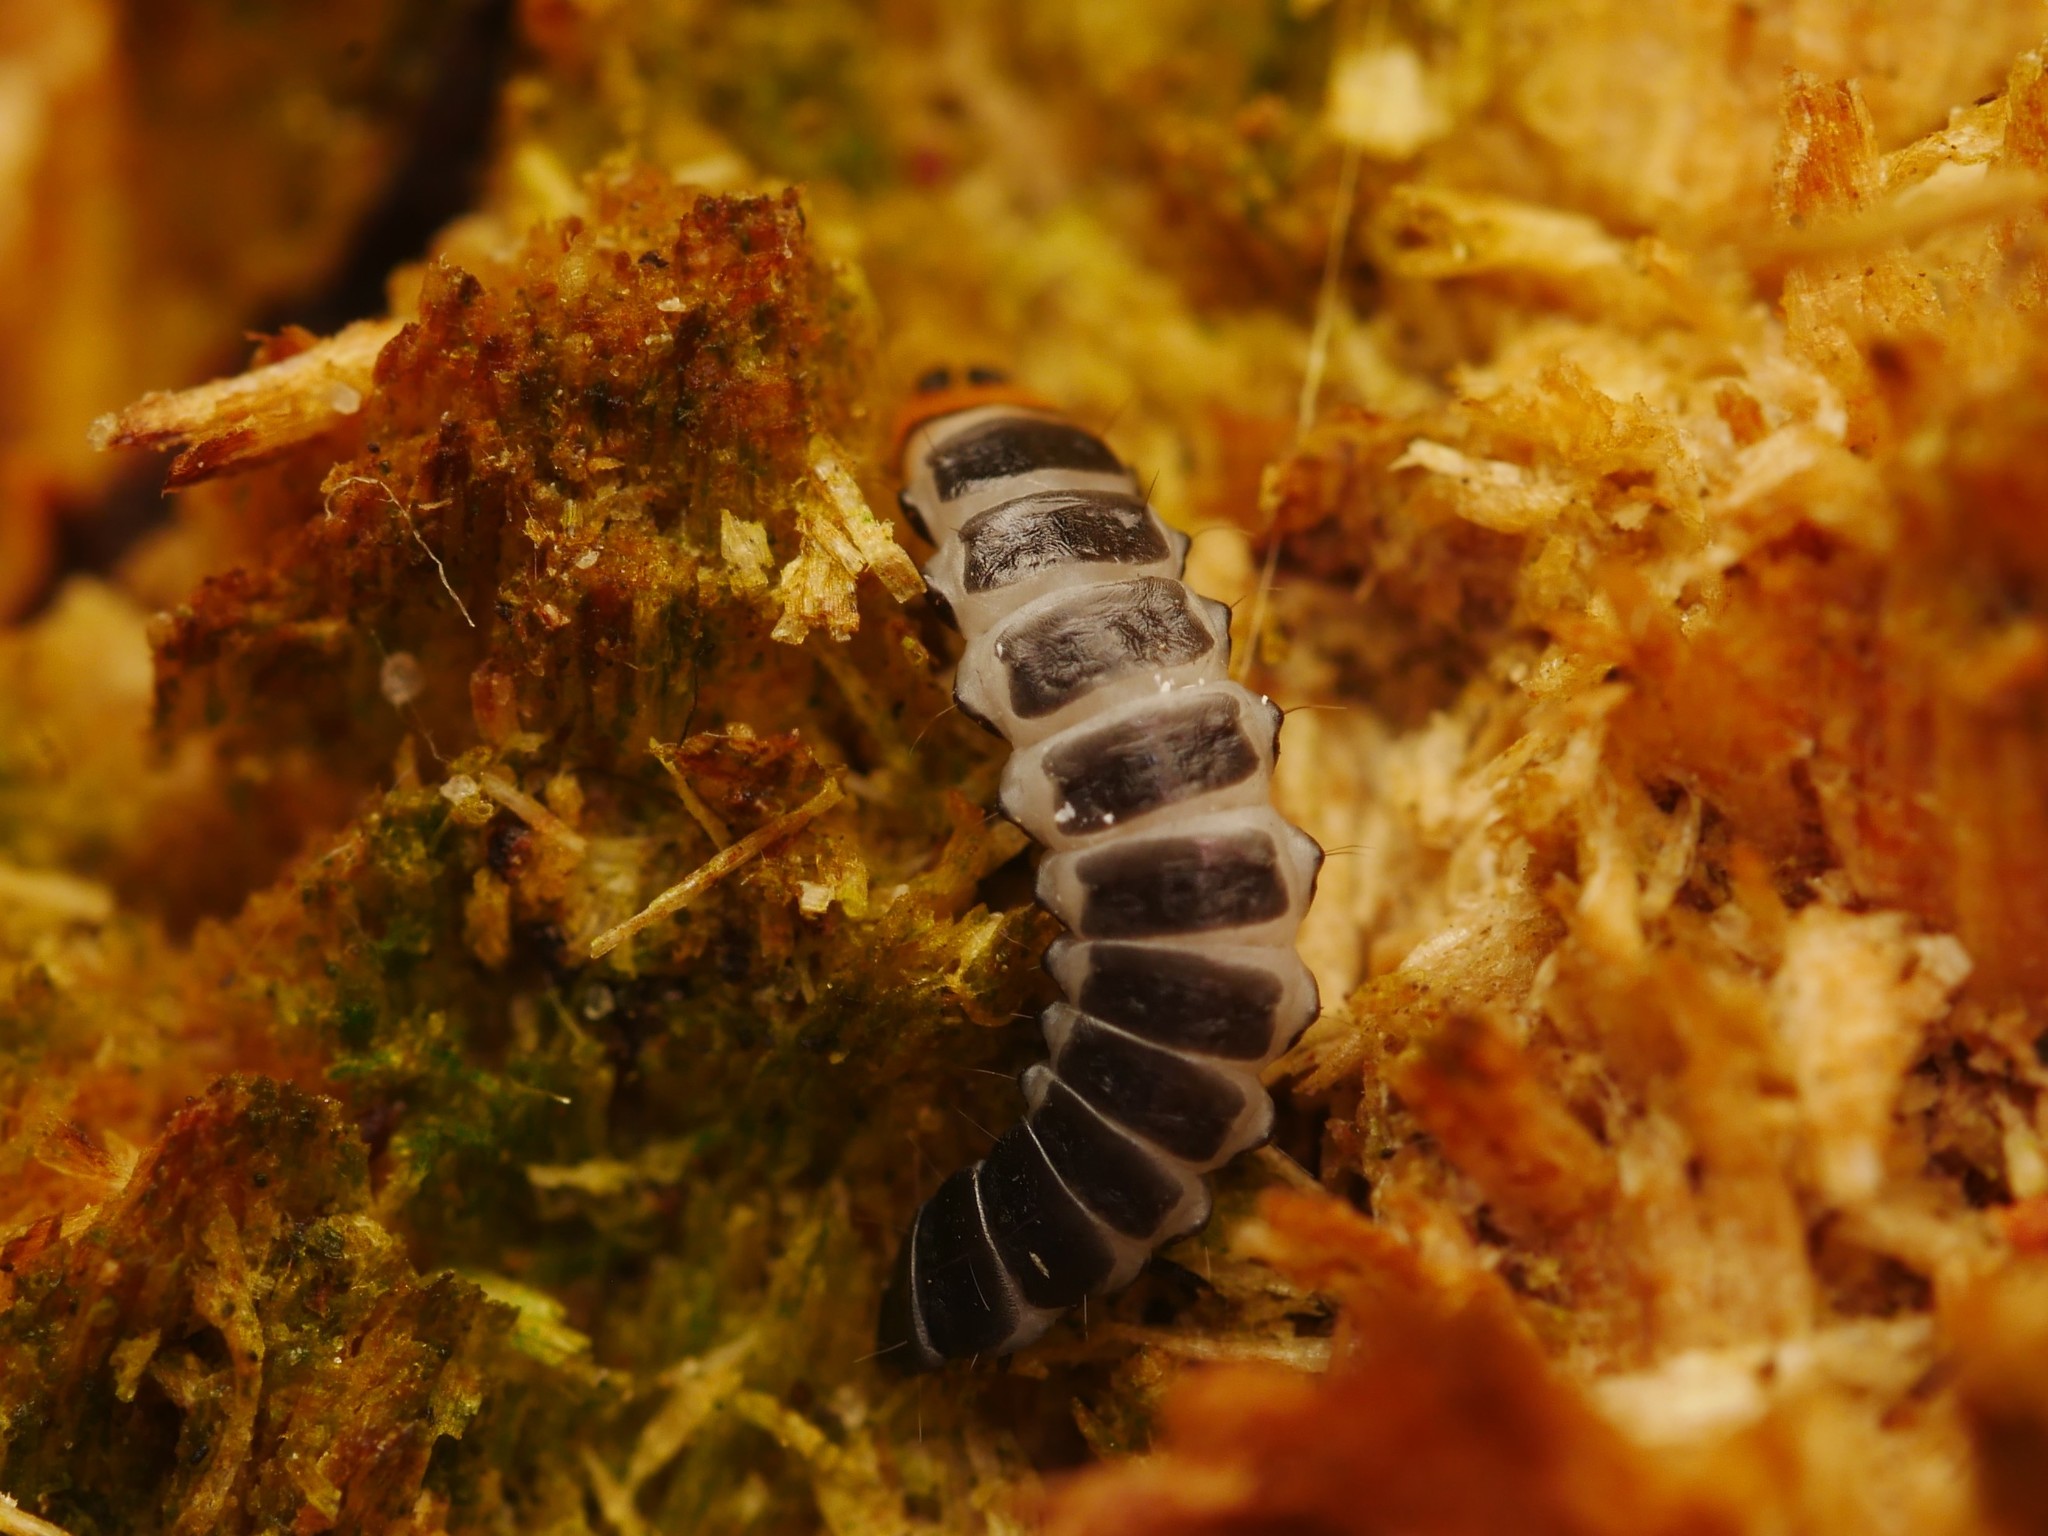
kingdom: Animalia
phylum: Arthropoda
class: Insecta
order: Coleoptera
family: Lycidae
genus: Lygistopterus
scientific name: Lygistopterus sanguineus
